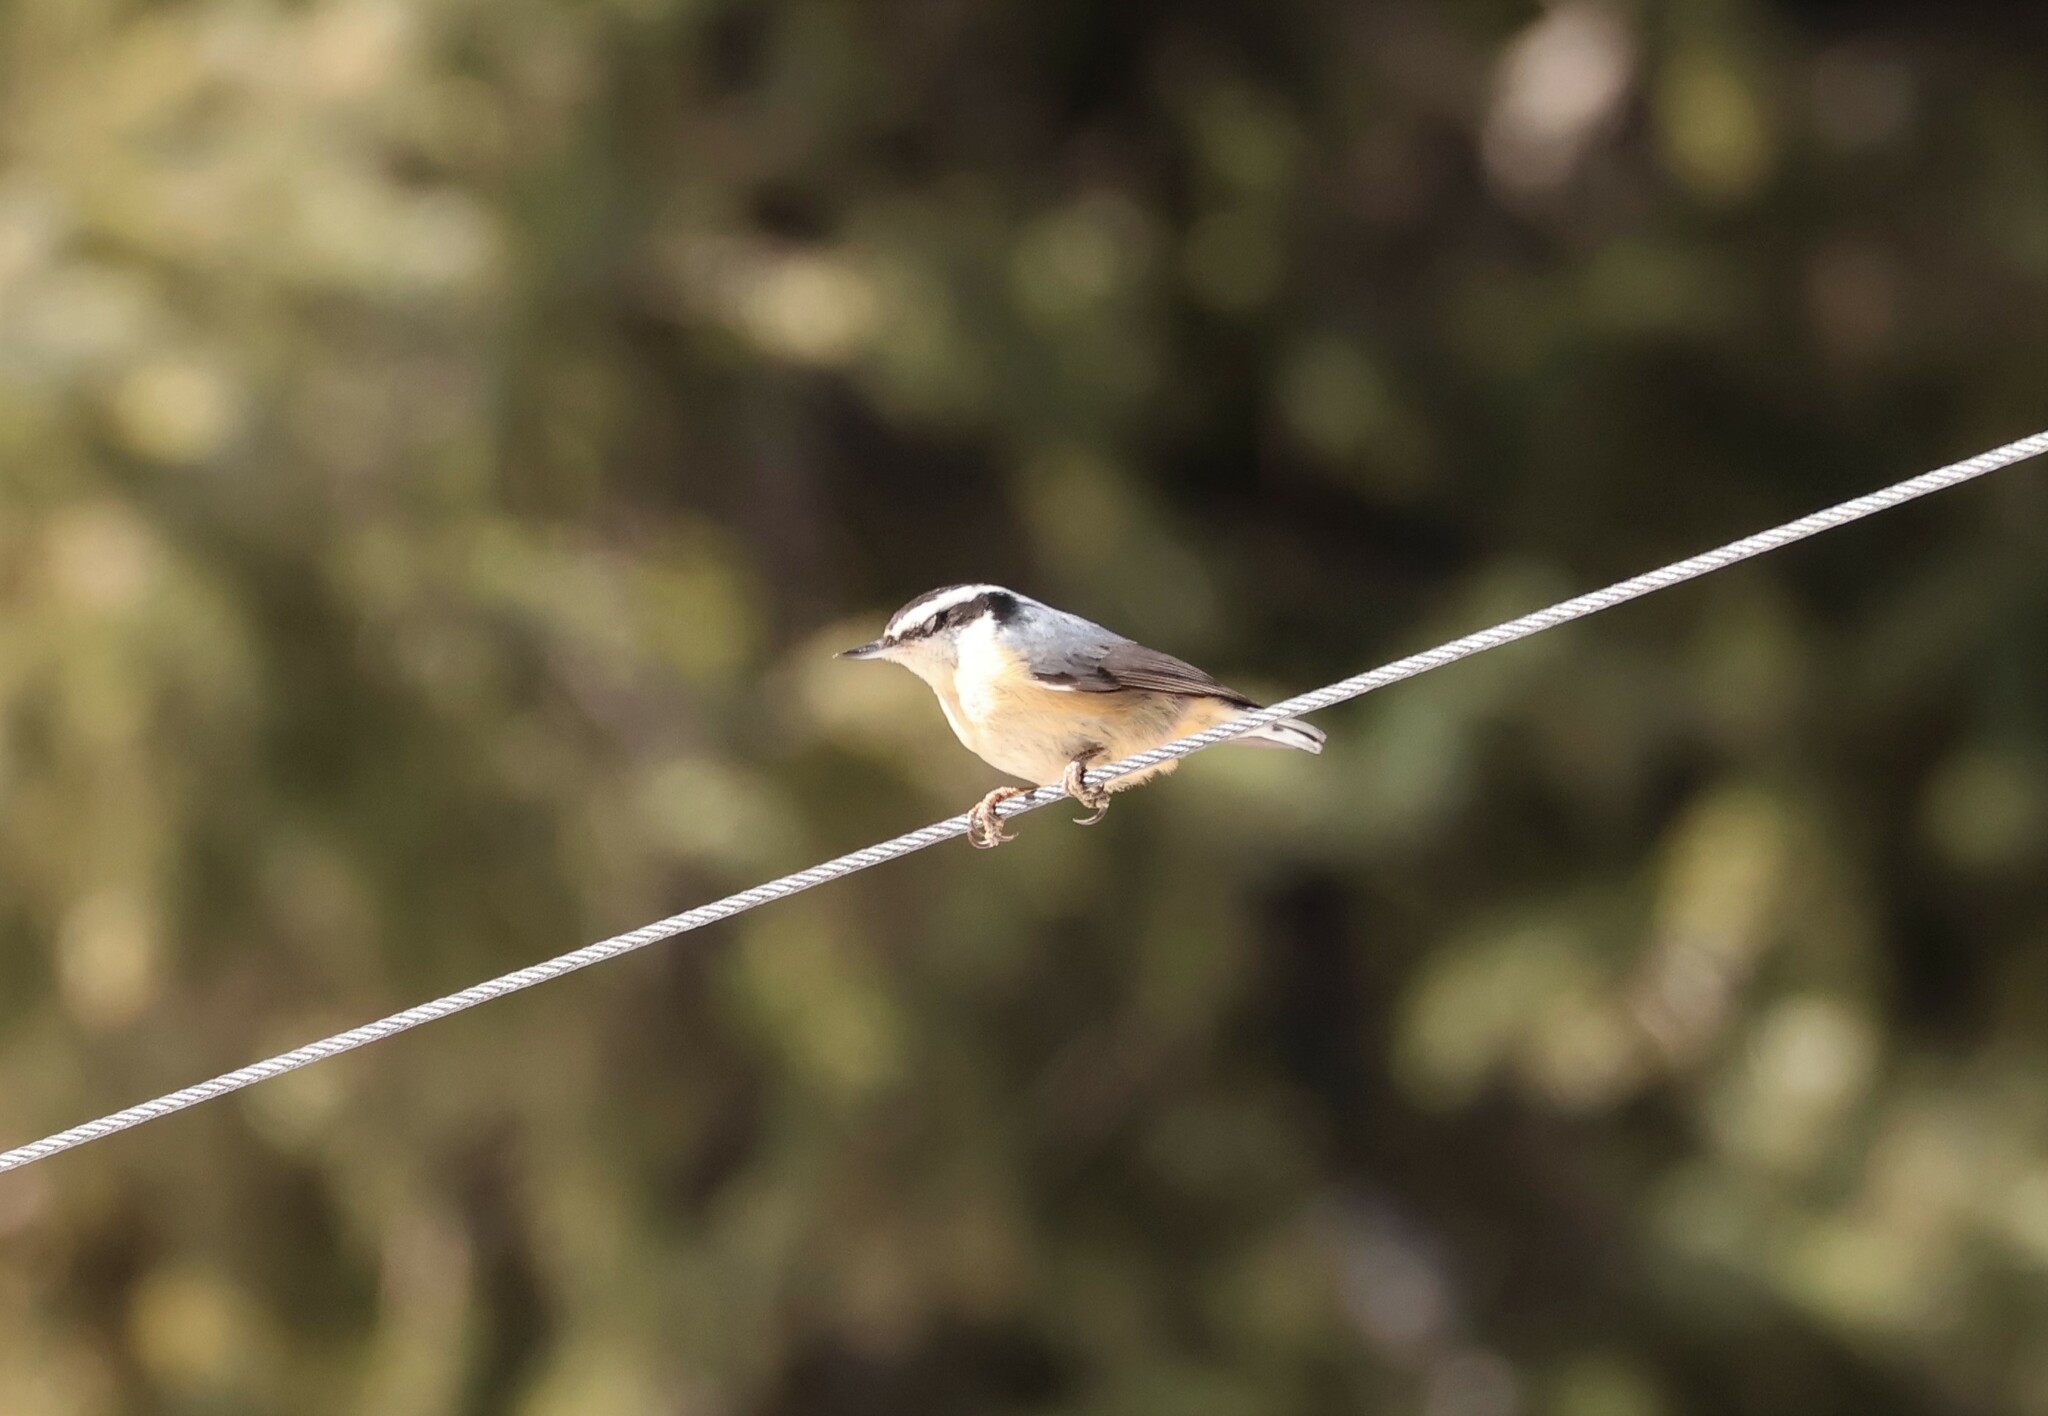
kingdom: Animalia
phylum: Chordata
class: Aves
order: Passeriformes
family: Sittidae
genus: Sitta
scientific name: Sitta canadensis
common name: Red-breasted nuthatch
